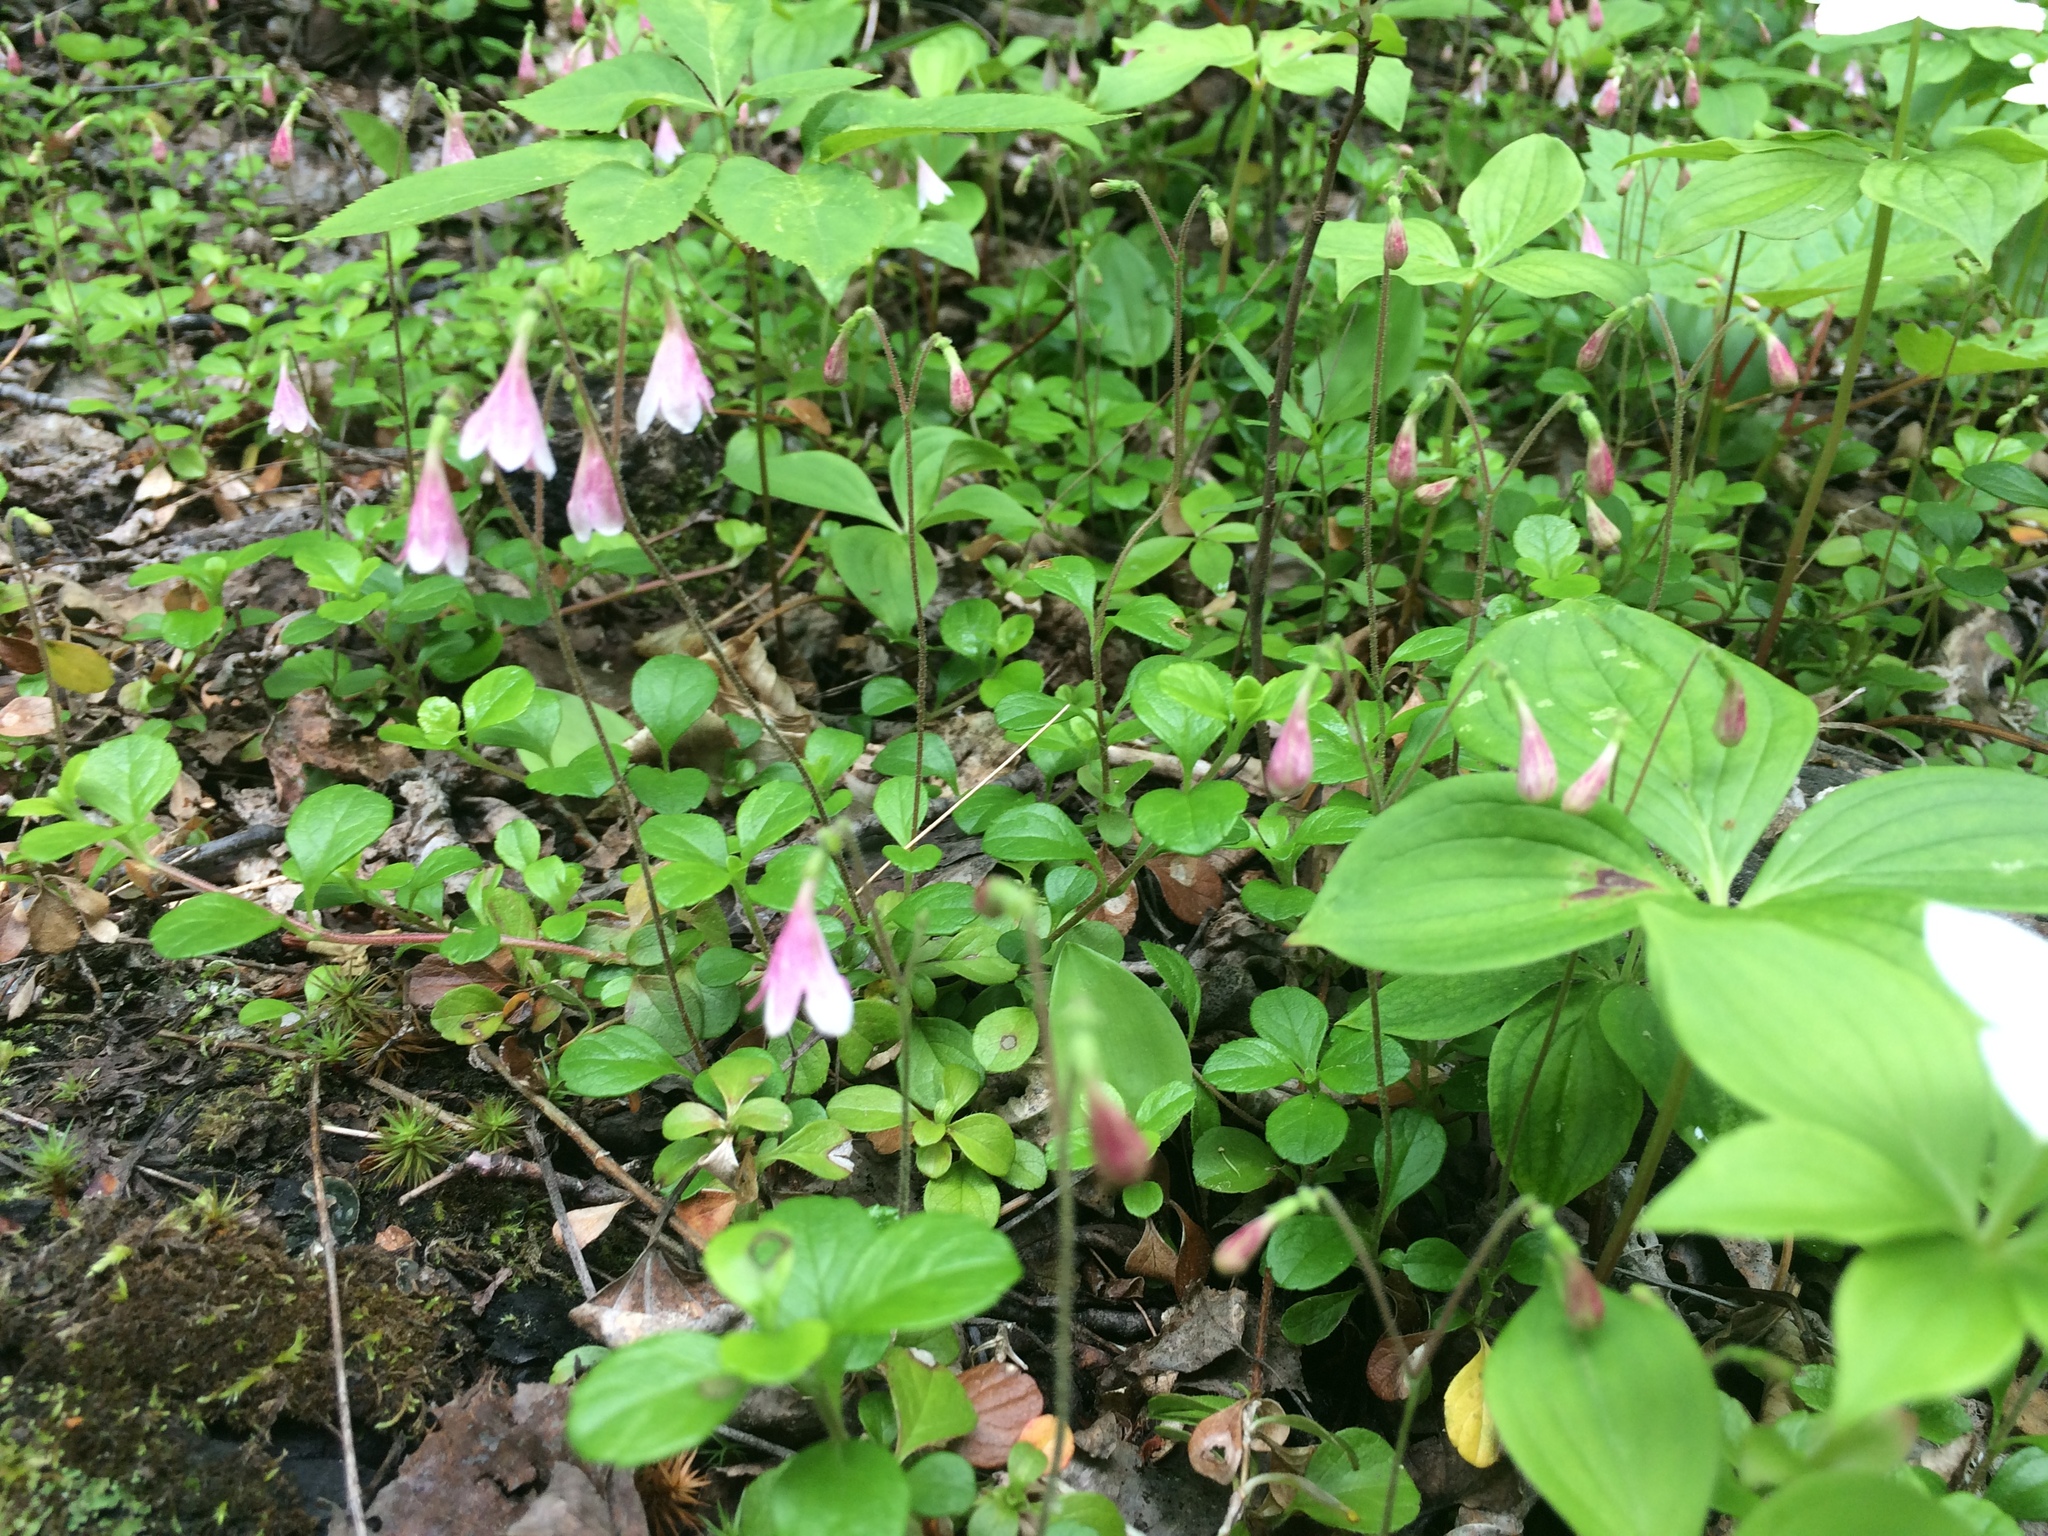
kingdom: Plantae
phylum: Tracheophyta
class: Magnoliopsida
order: Dipsacales
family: Caprifoliaceae
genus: Linnaea
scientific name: Linnaea borealis
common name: Twinflower
